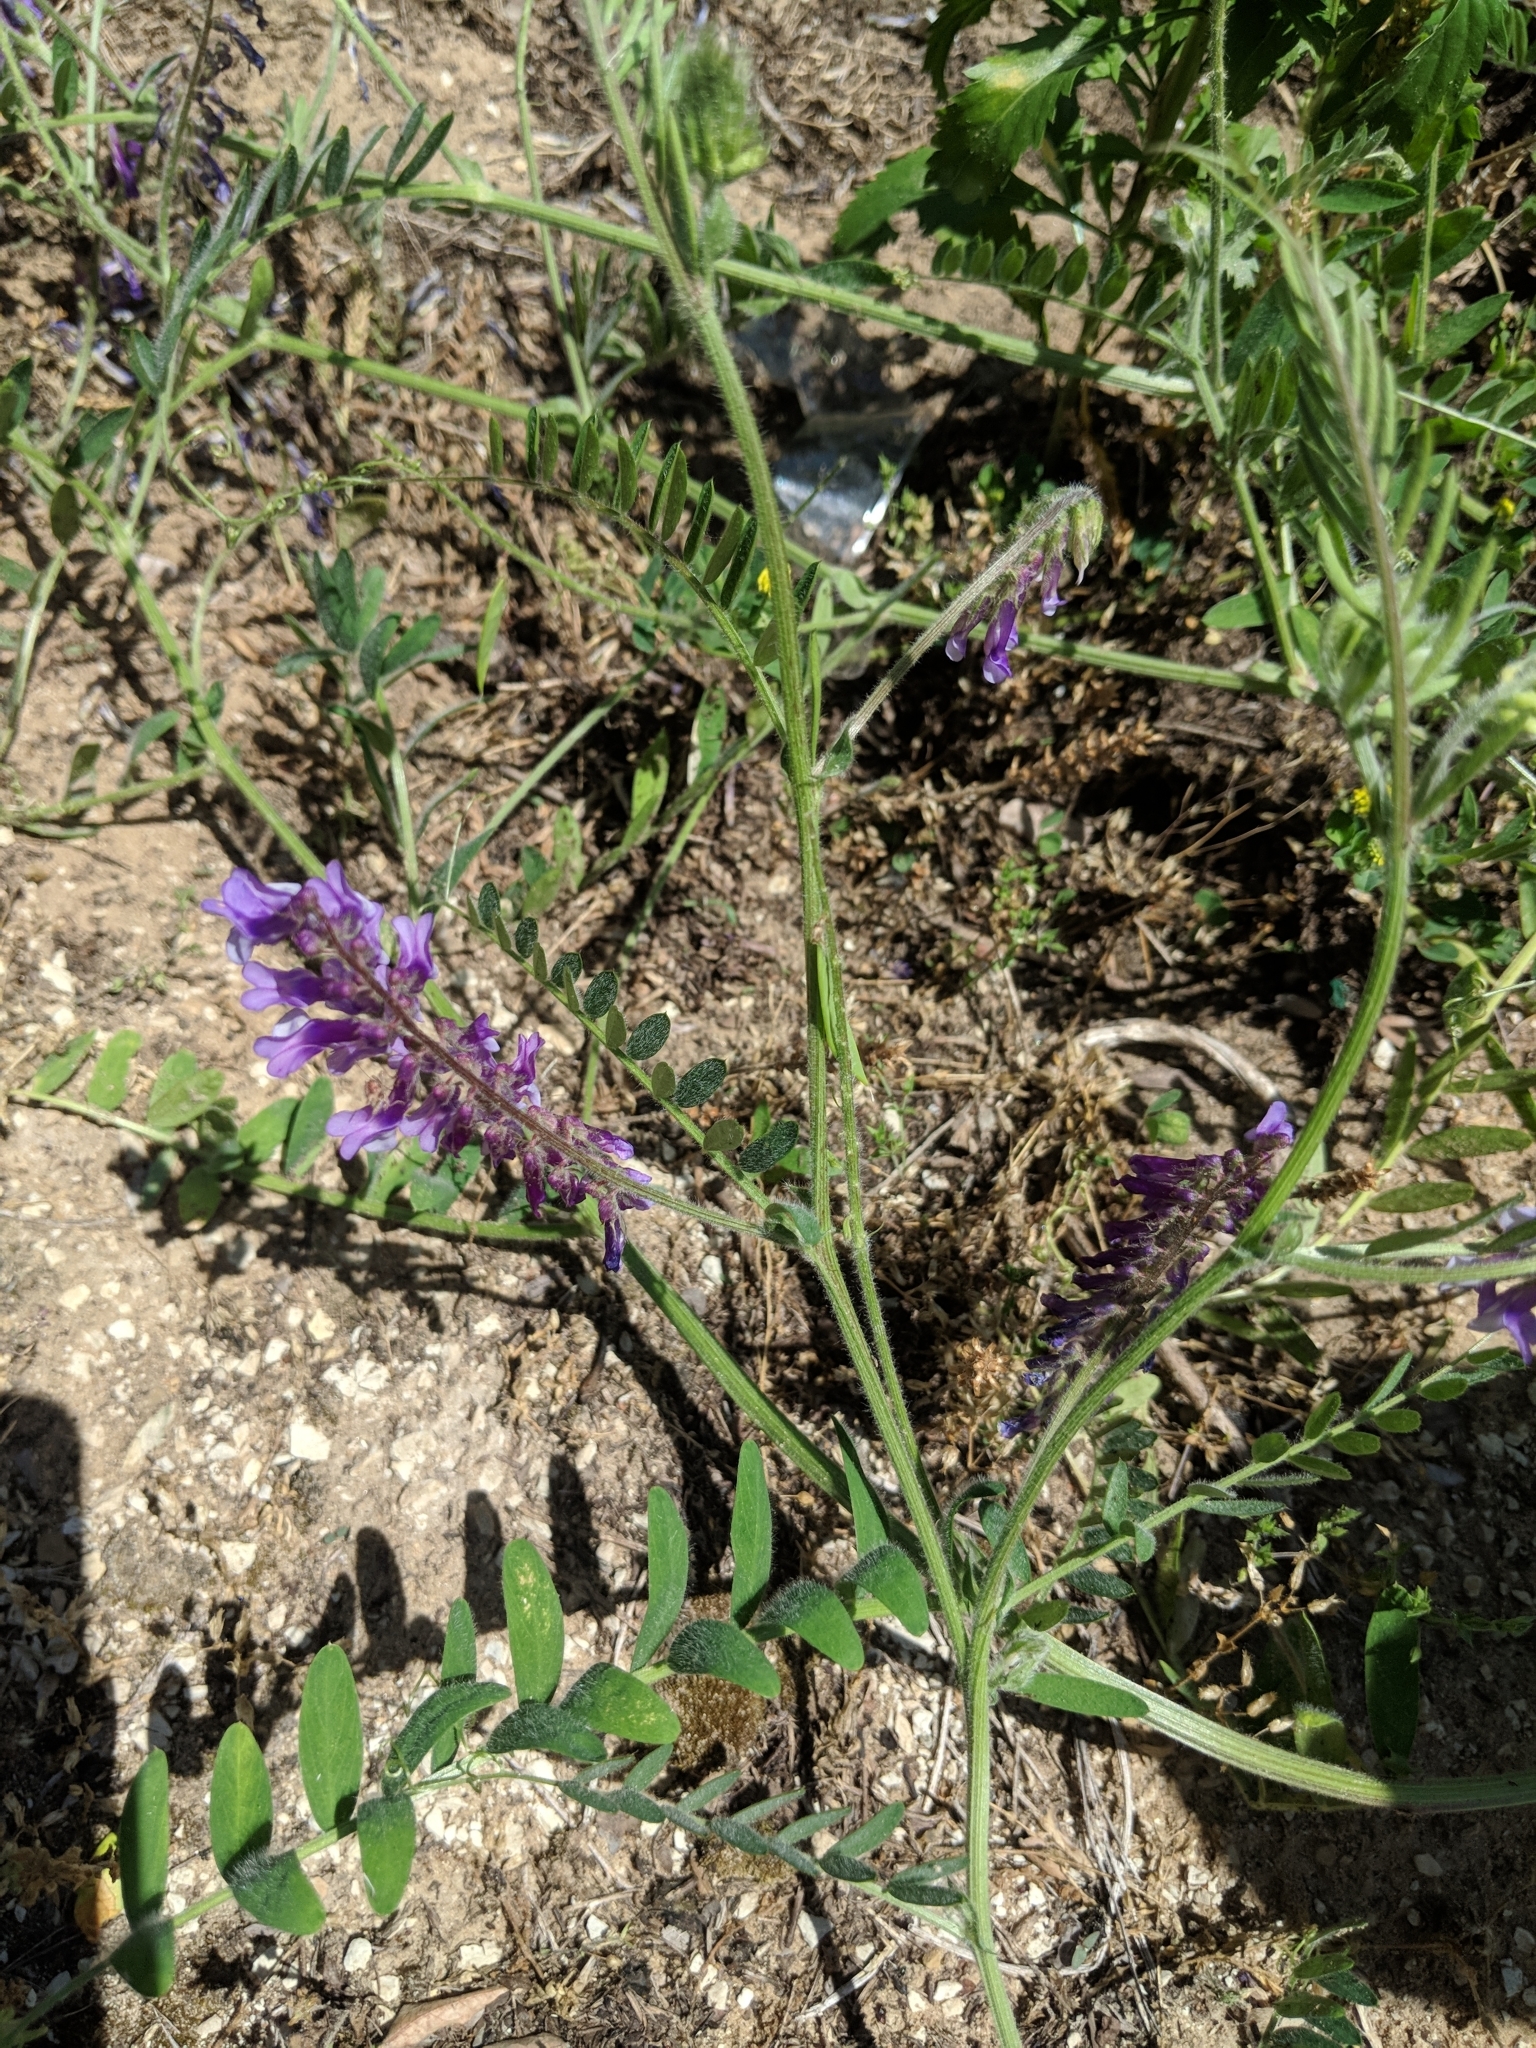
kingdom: Plantae
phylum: Tracheophyta
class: Magnoliopsida
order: Fabales
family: Fabaceae
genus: Vicia
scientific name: Vicia villosa
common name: Fodder vetch
